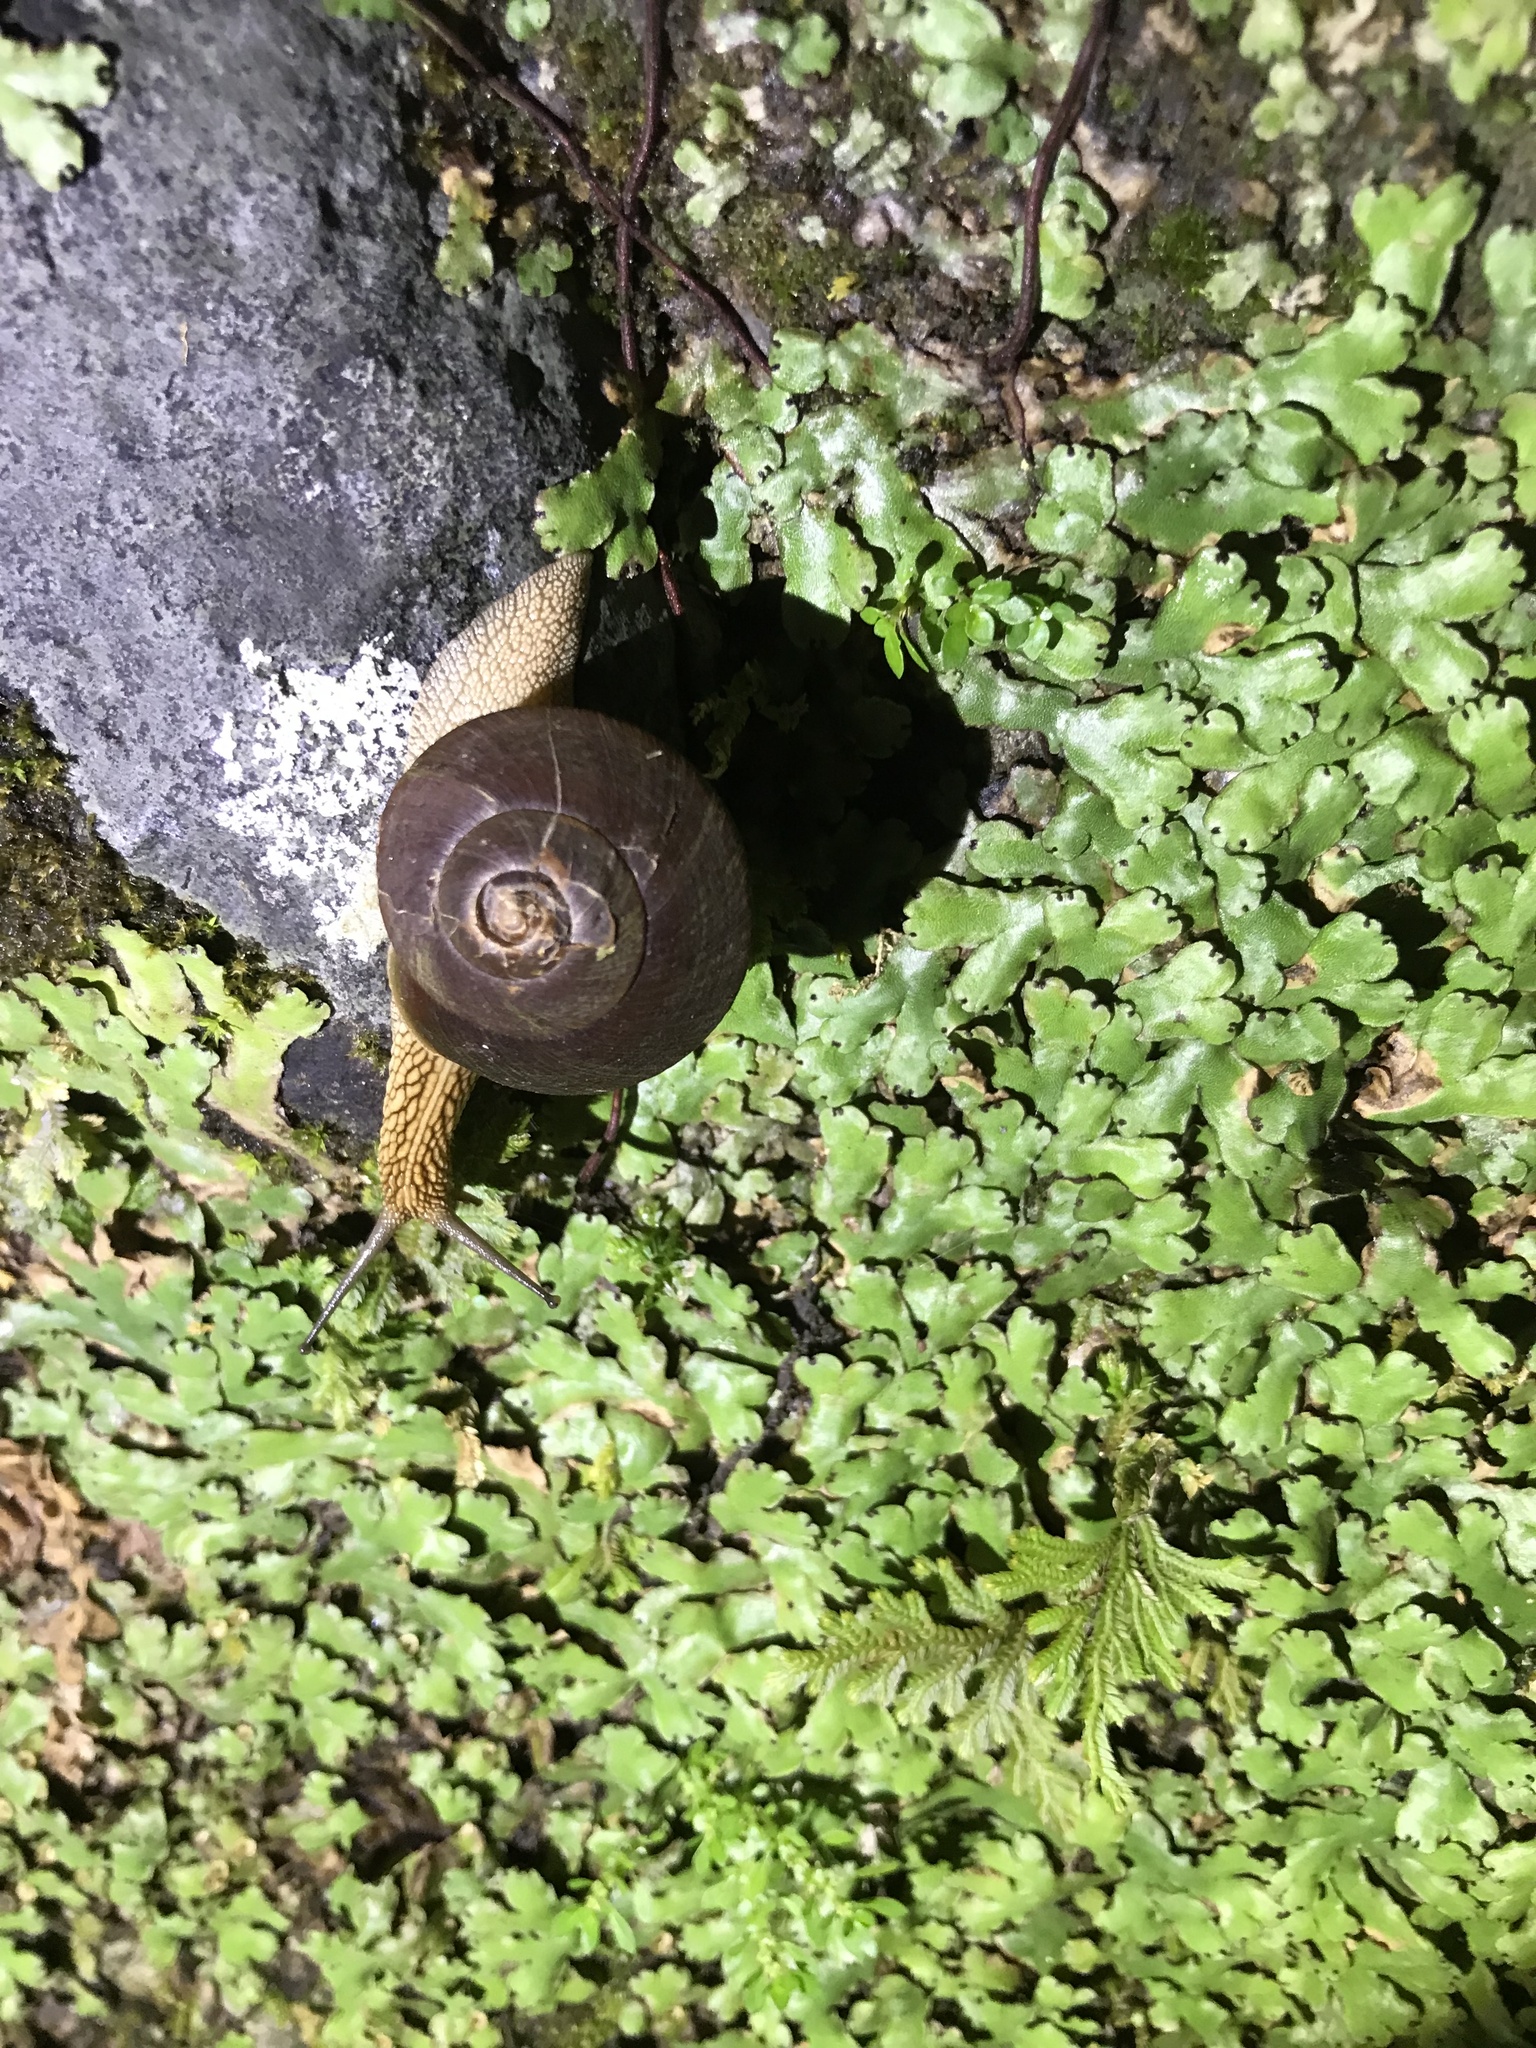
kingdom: Animalia
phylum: Mollusca
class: Gastropoda
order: Stylommatophora
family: Camaenidae
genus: Nesiohelix
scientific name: Nesiohelix swinhoei
